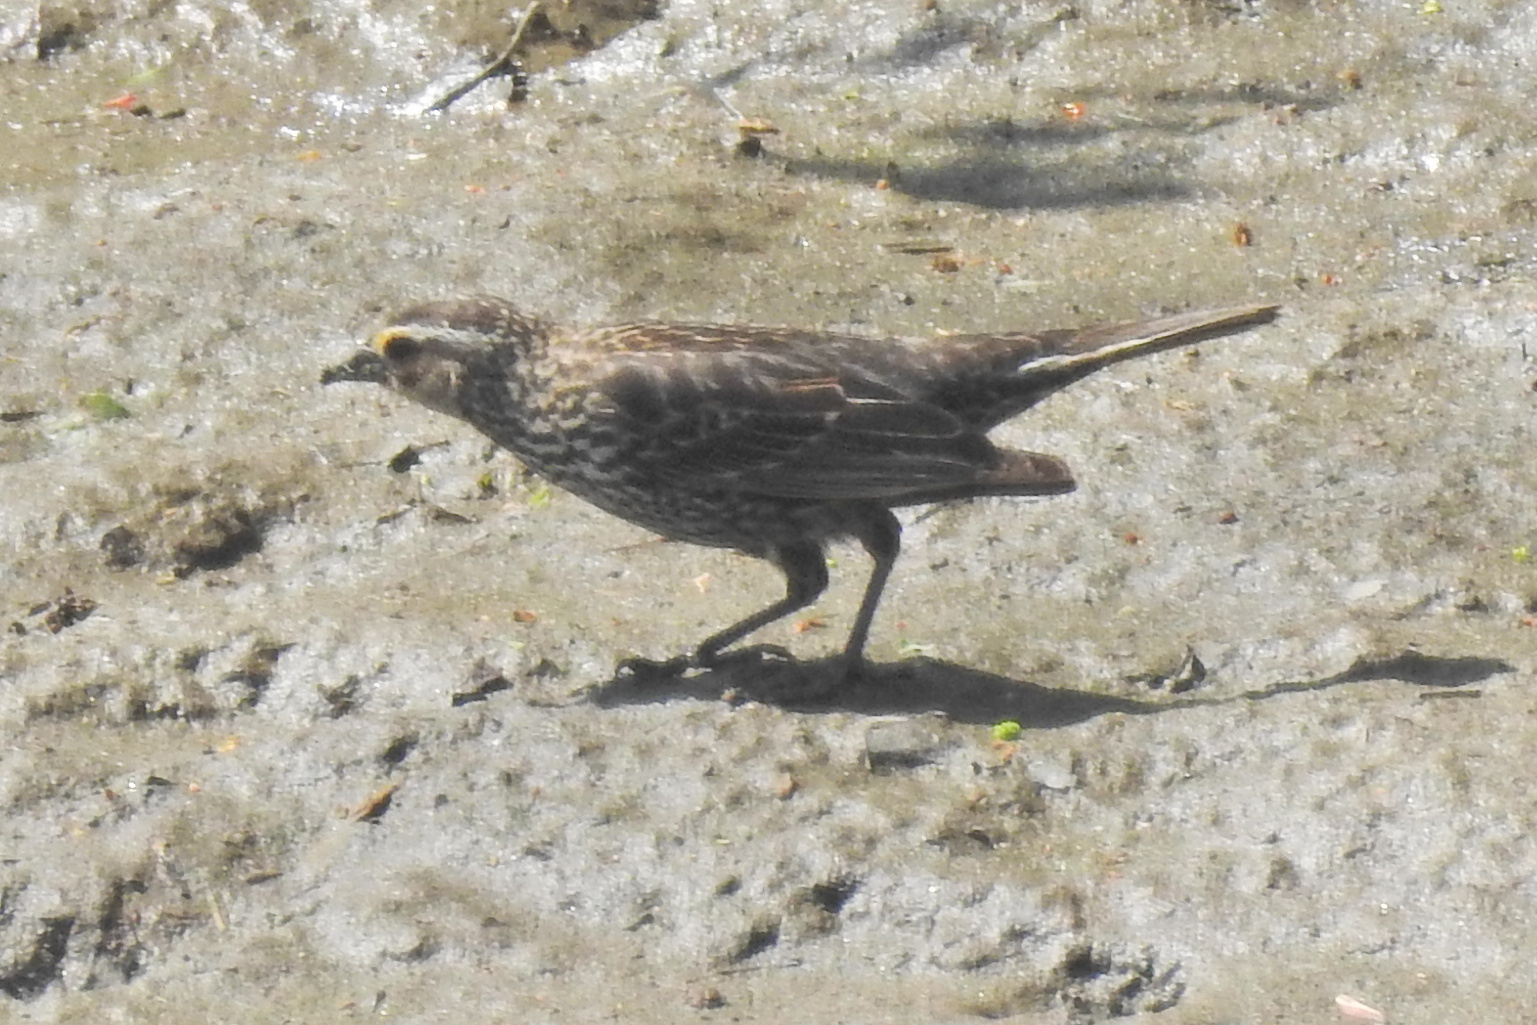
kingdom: Animalia
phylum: Chordata
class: Aves
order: Passeriformes
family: Icteridae
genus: Agelaius
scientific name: Agelaius phoeniceus
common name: Red-winged blackbird
